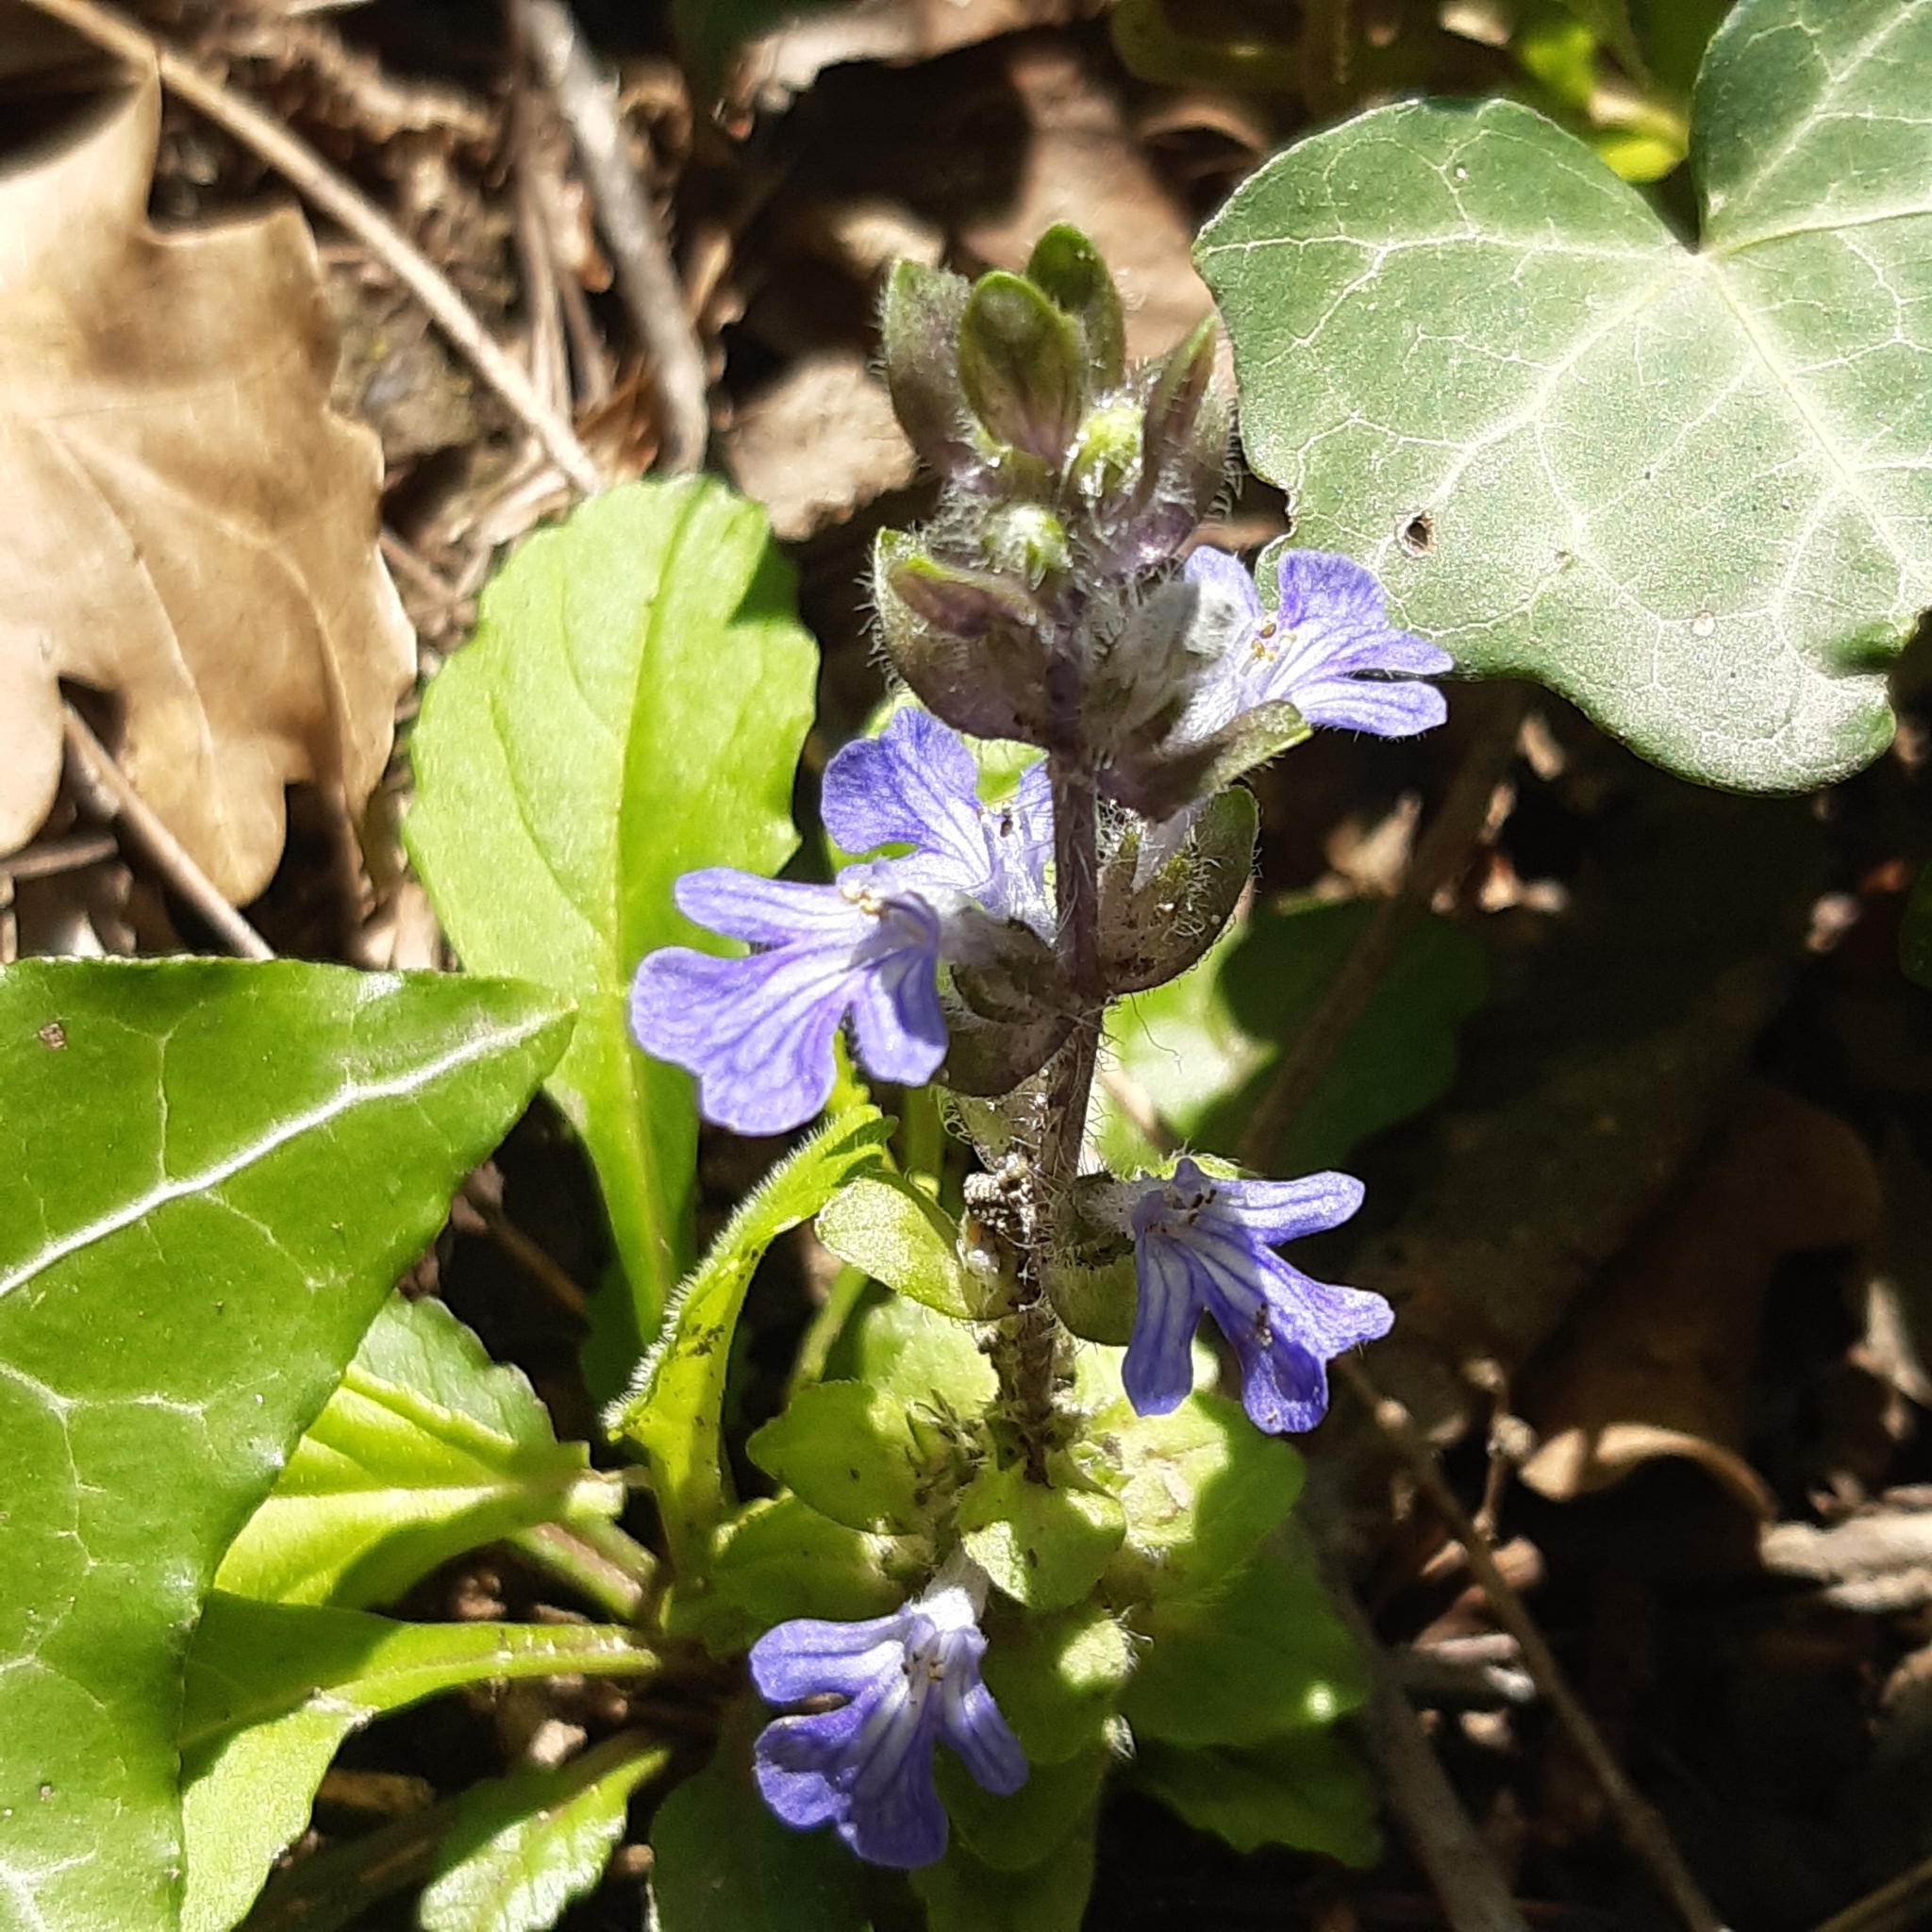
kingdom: Plantae
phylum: Tracheophyta
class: Magnoliopsida
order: Lamiales
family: Lamiaceae
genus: Ajuga
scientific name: Ajuga reptans
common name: Bugle
